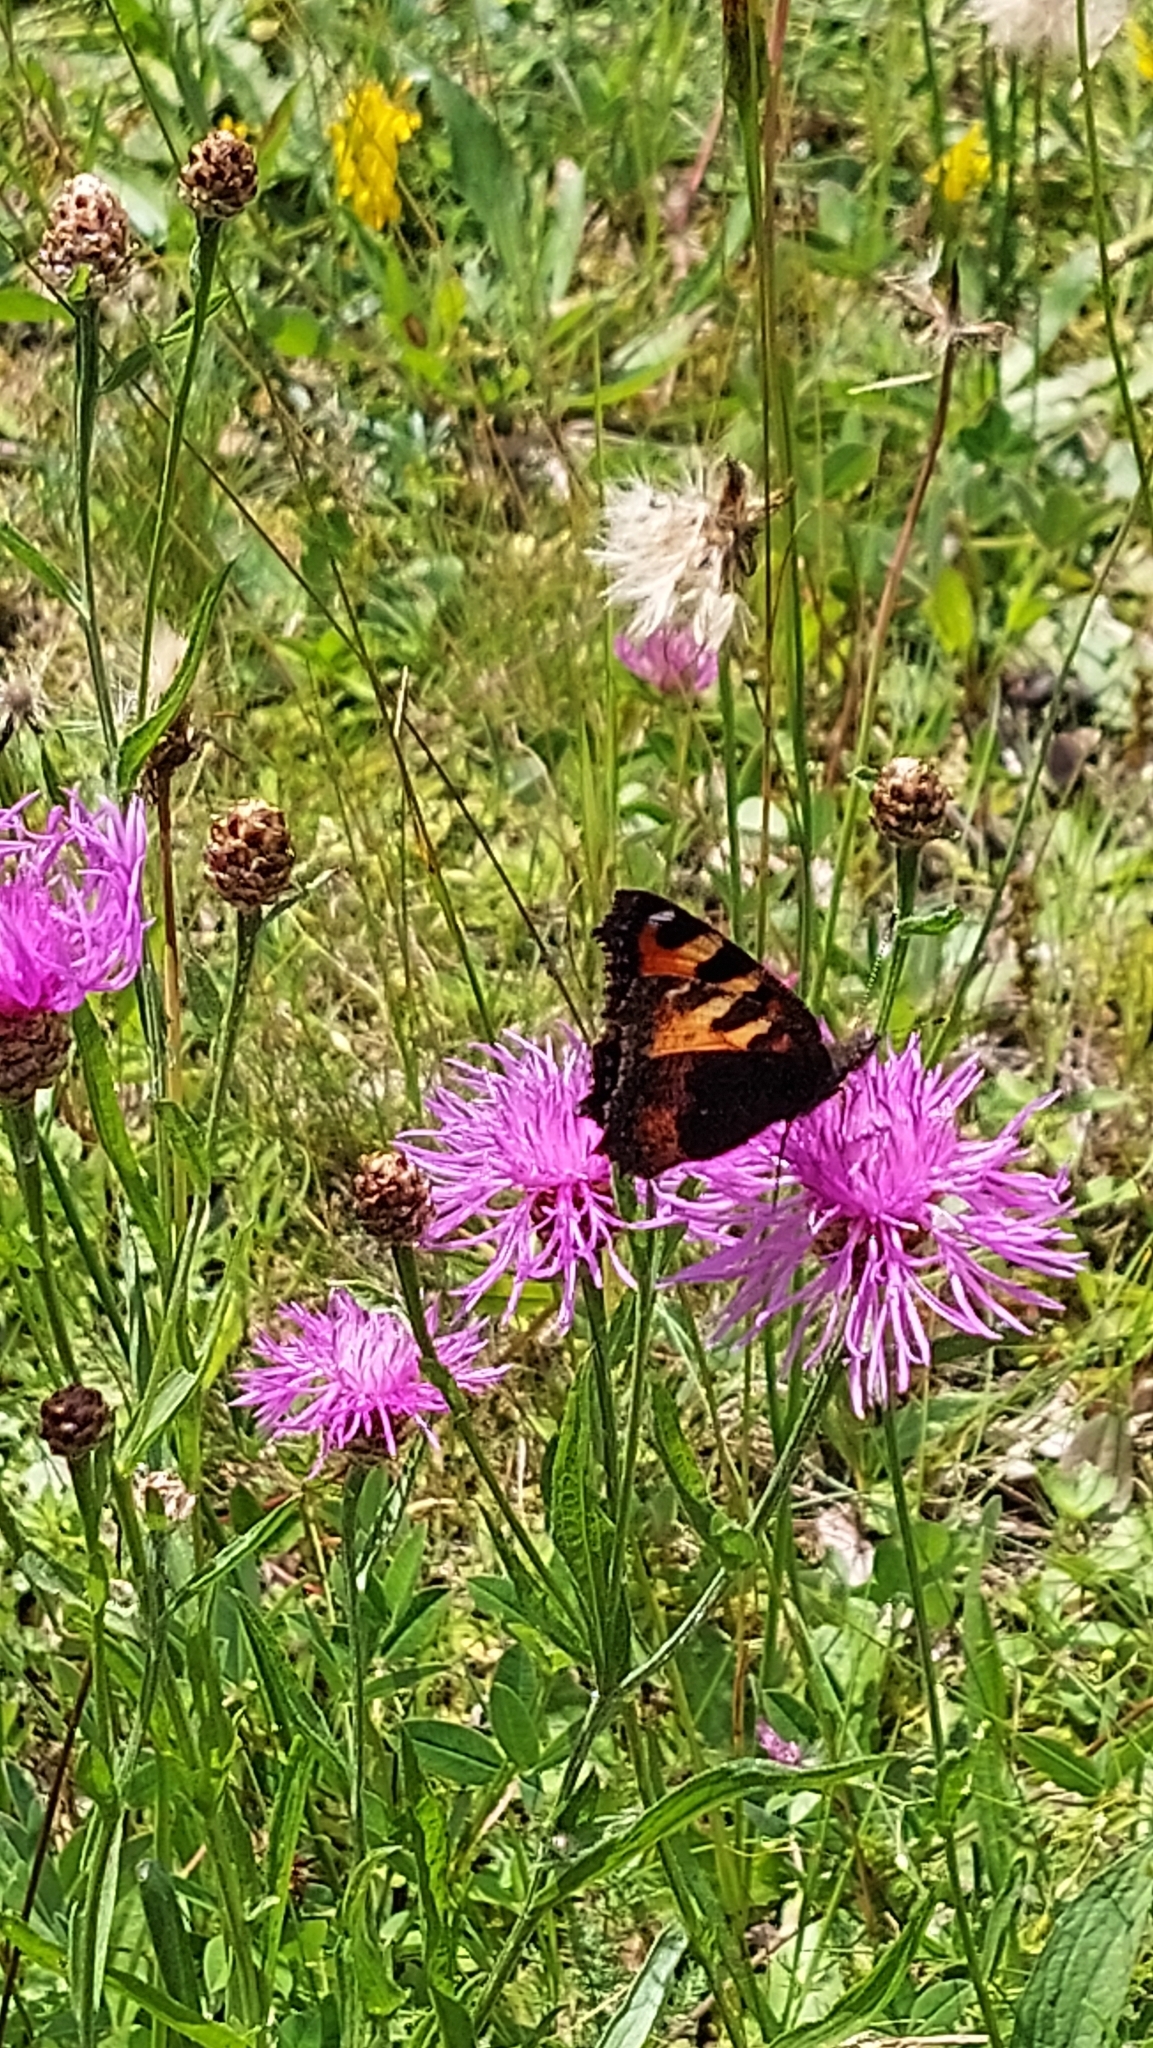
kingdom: Animalia
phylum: Arthropoda
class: Insecta
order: Lepidoptera
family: Nymphalidae
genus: Aglais
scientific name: Aglais io
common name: Peacock
